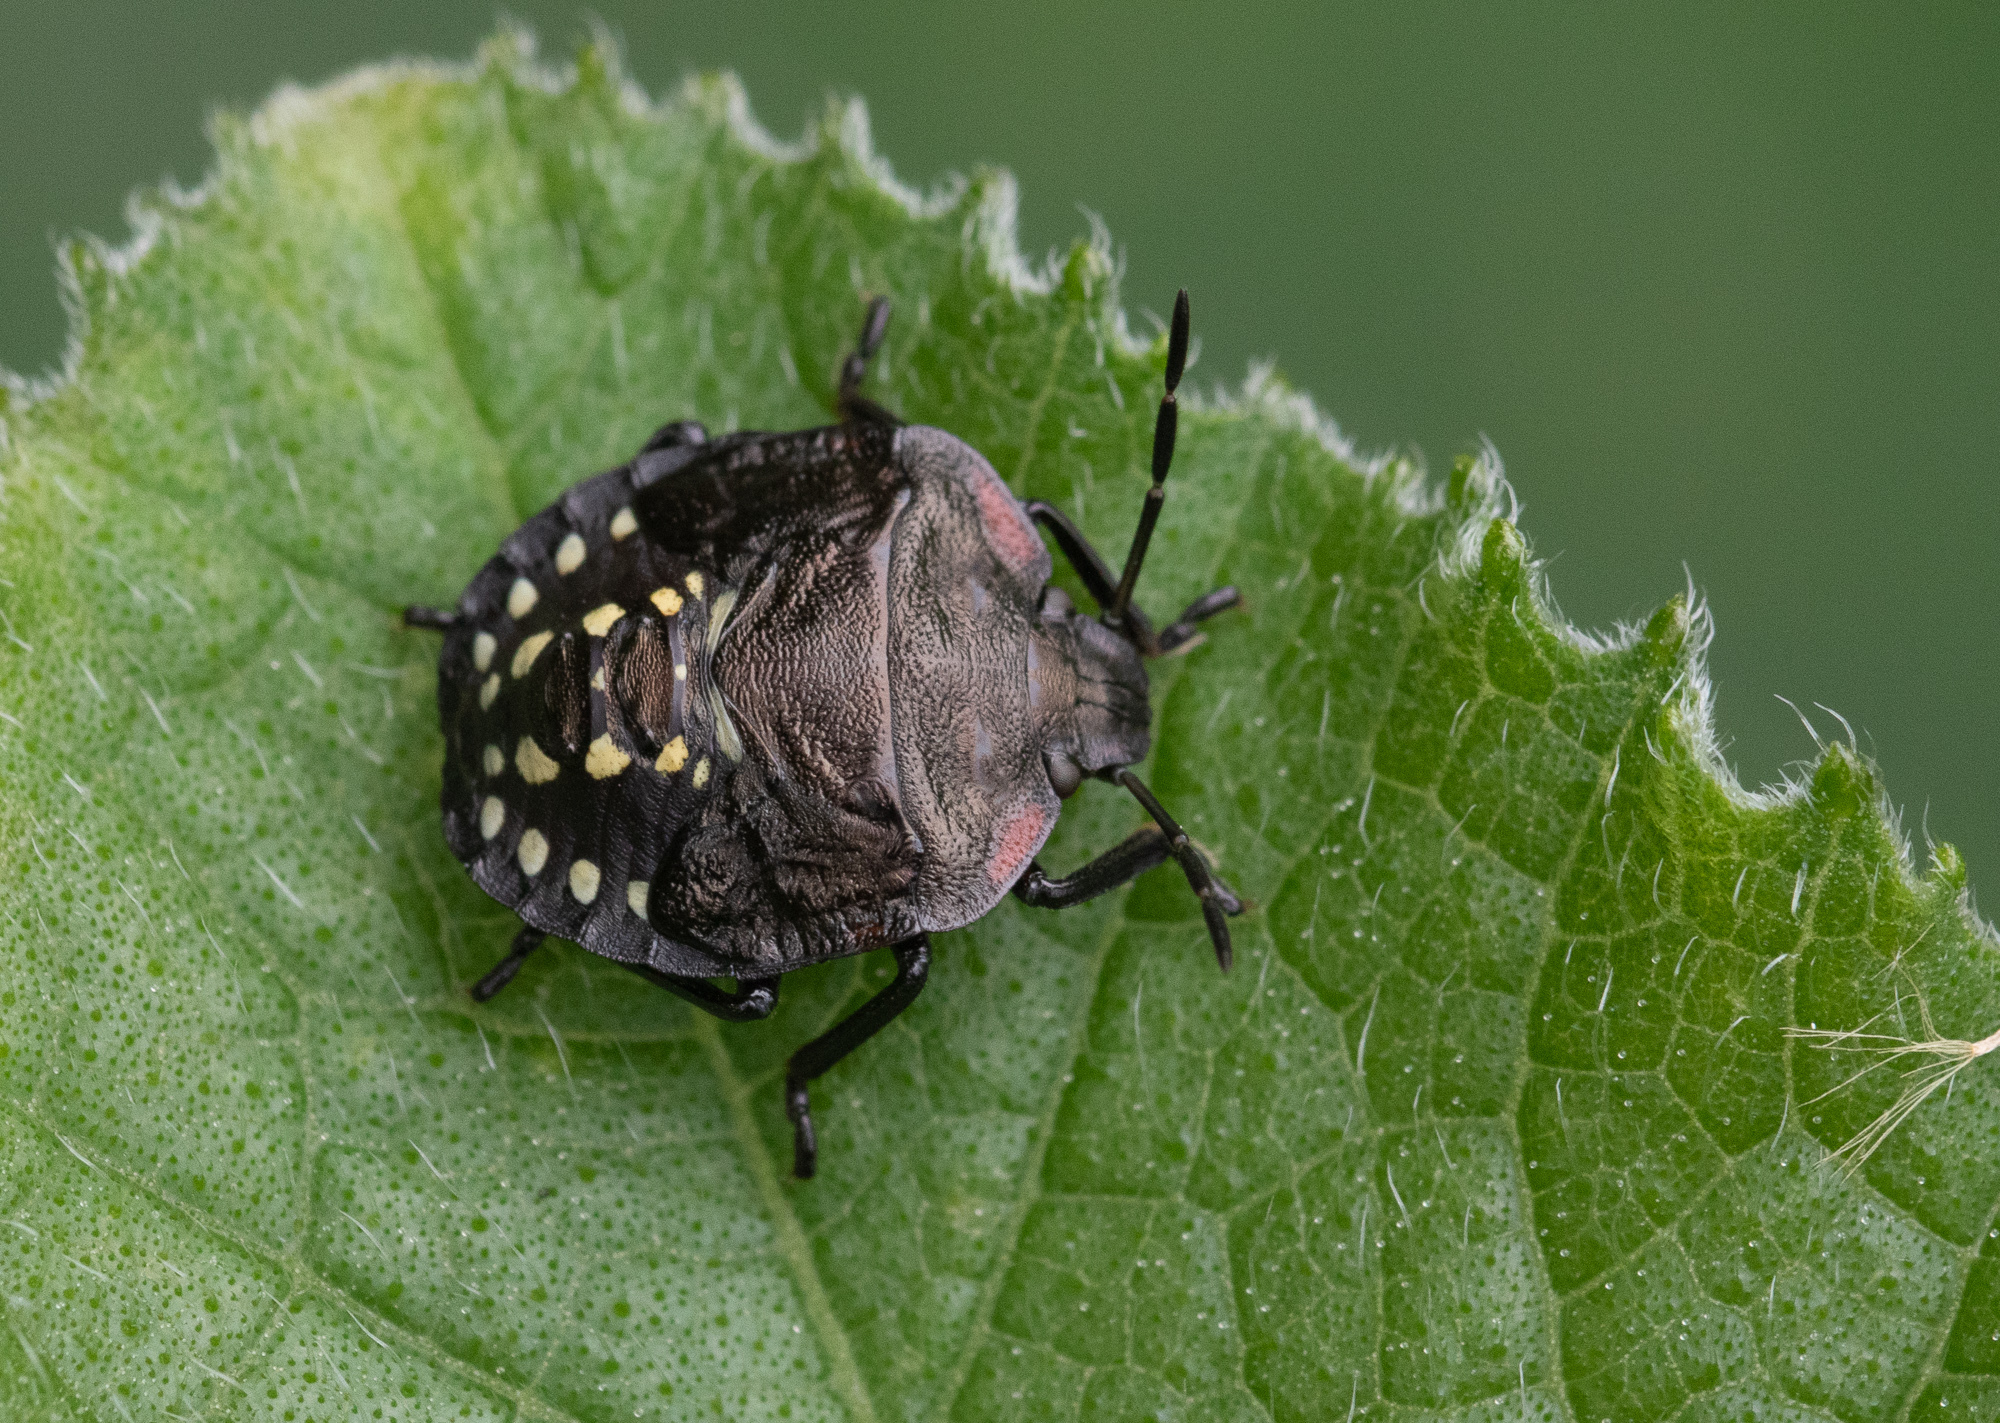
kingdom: Animalia
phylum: Arthropoda
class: Insecta
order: Hemiptera
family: Pentatomidae
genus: Nezara
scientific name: Nezara viridula
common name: Southern green stink bug
